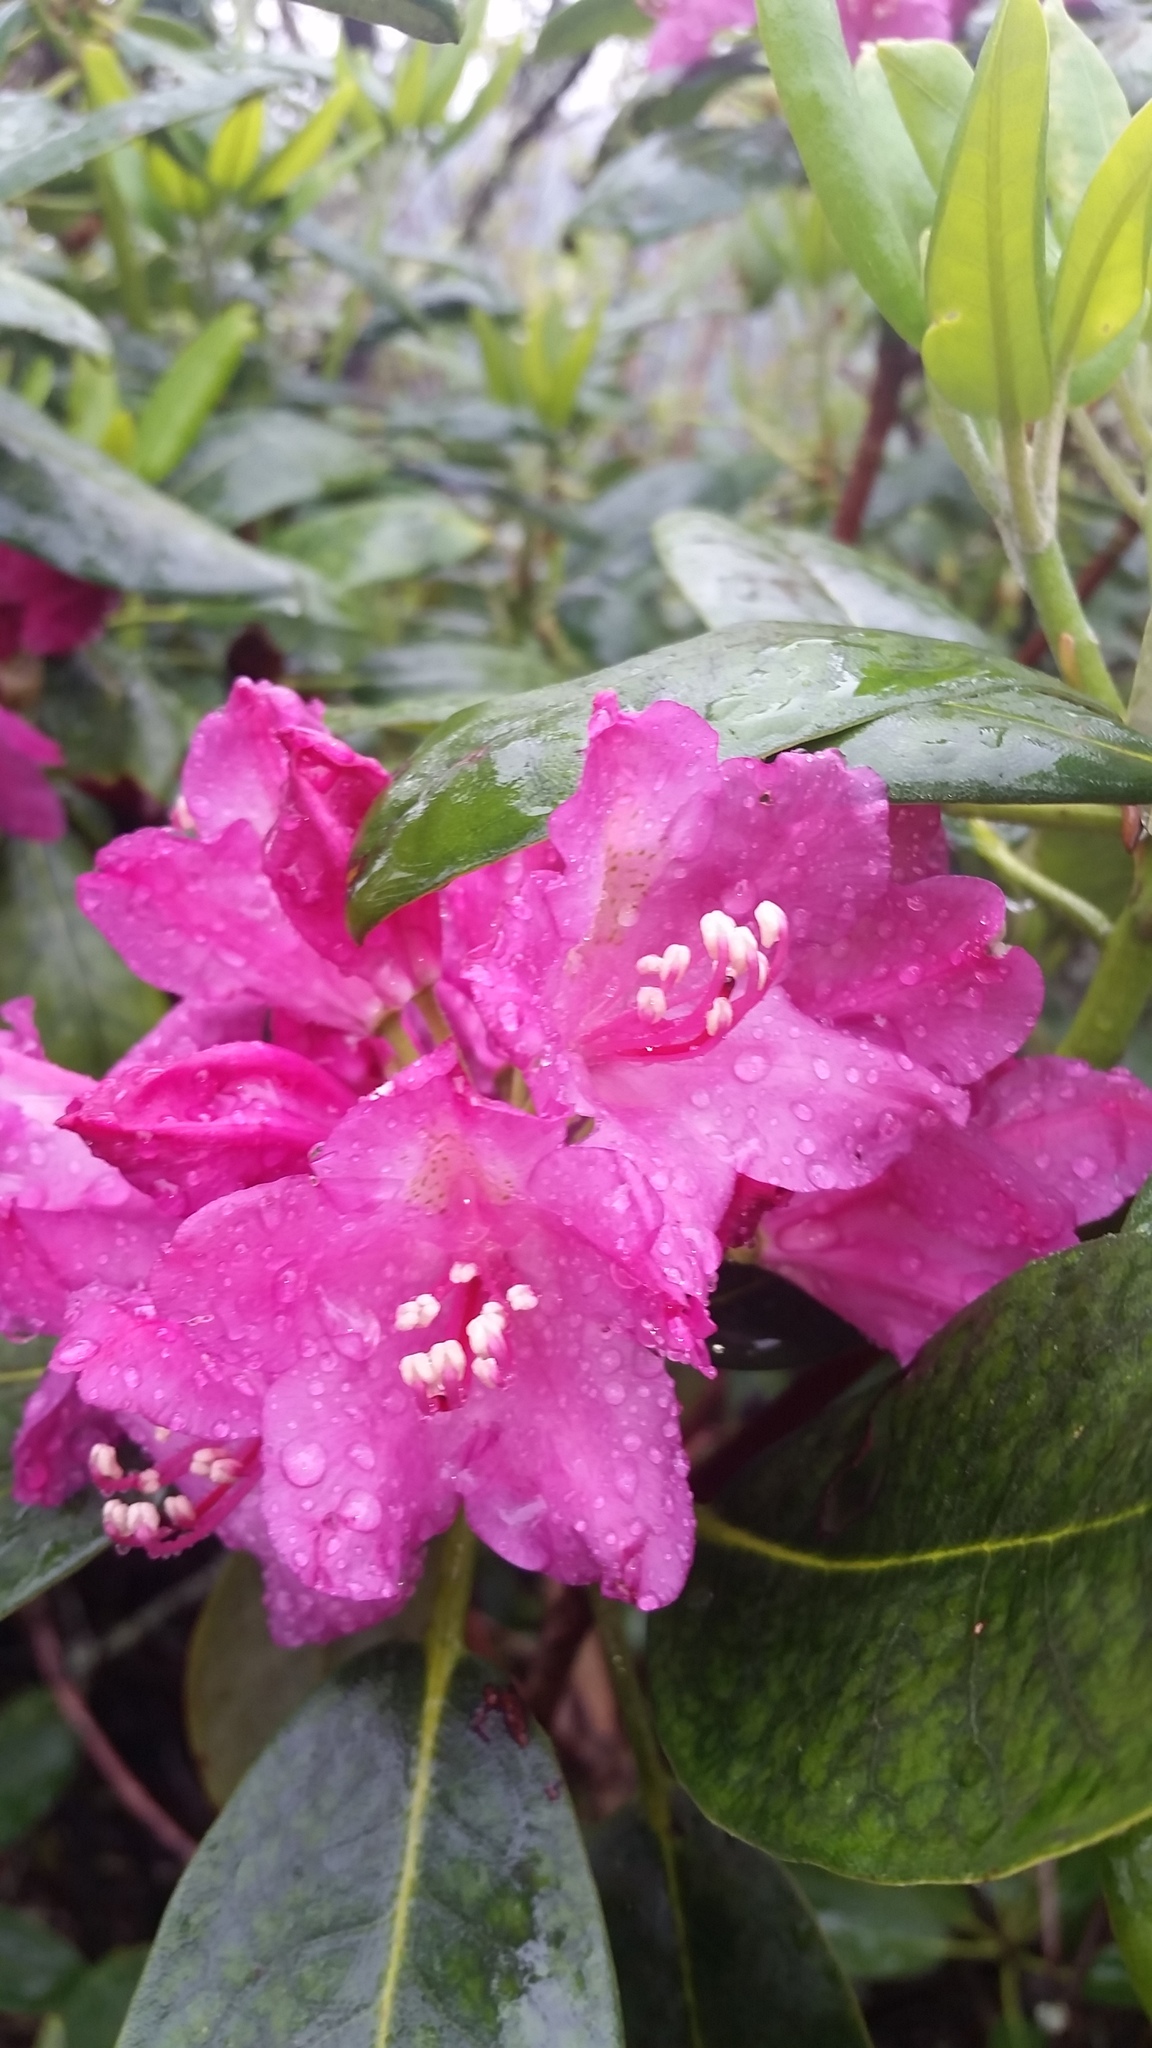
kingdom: Plantae
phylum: Tracheophyta
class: Magnoliopsida
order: Ericales
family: Ericaceae
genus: Rhododendron
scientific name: Rhododendron catawbiense
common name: Catawba rhododendron
